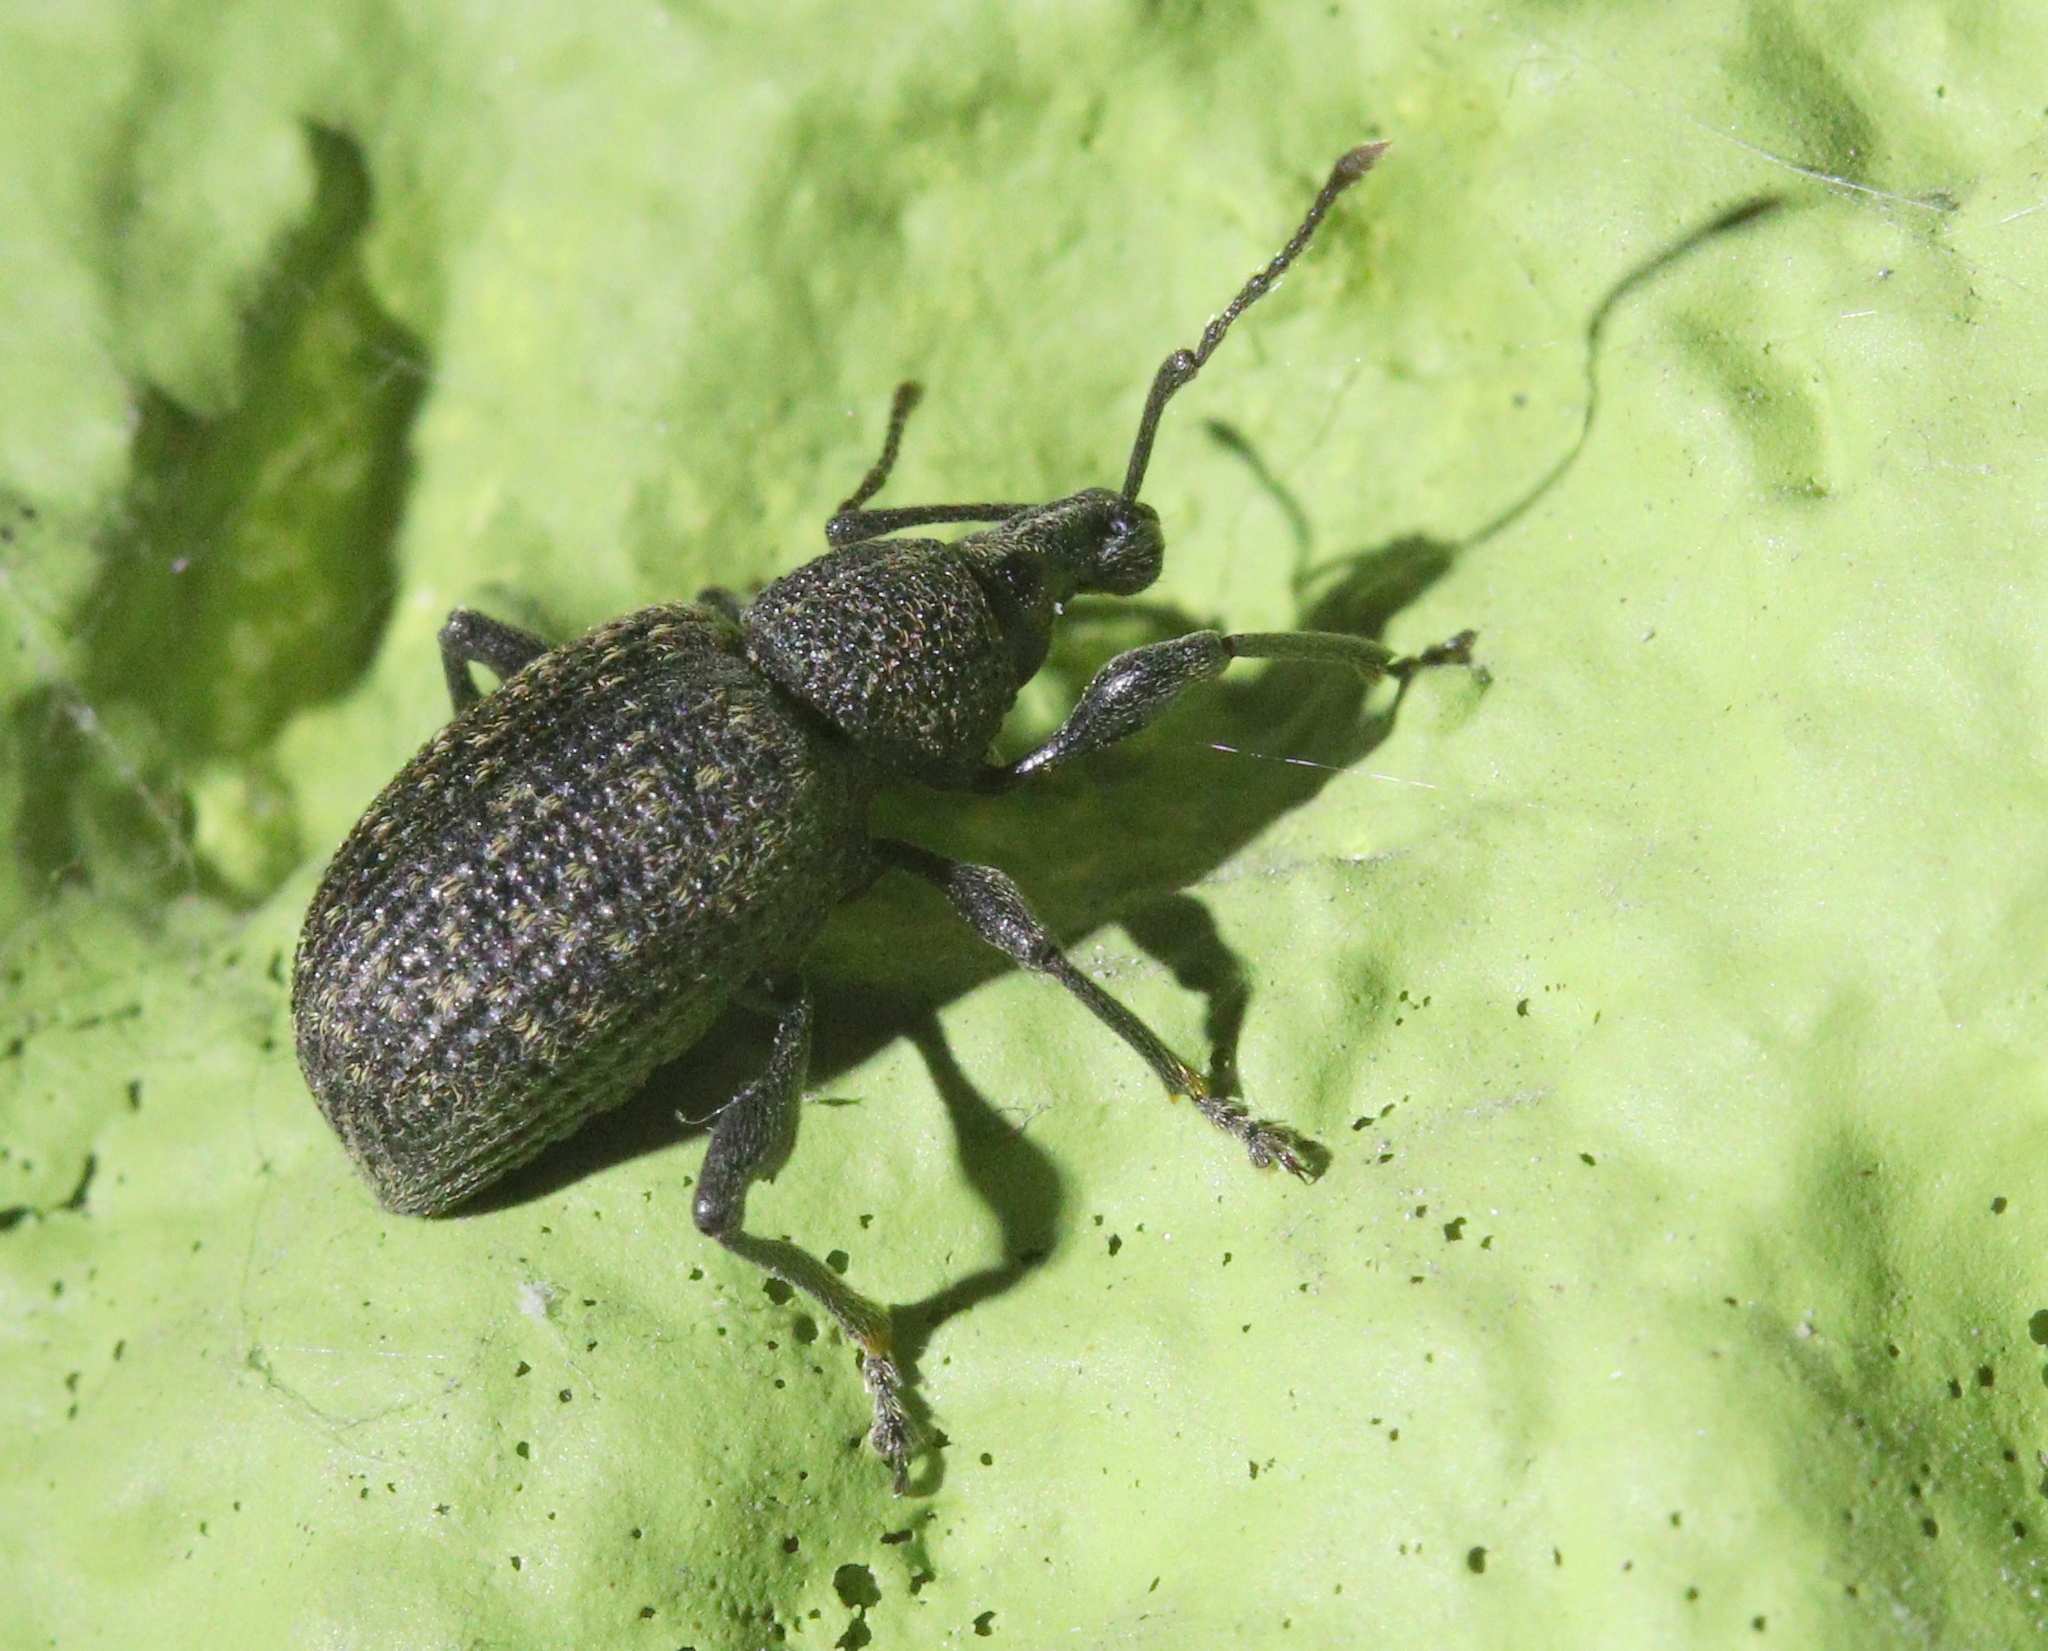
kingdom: Animalia
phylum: Arthropoda
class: Insecta
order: Coleoptera
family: Curculionidae
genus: Otiorhynchus
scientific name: Otiorhynchus sulcatus
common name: Black vine weevil
